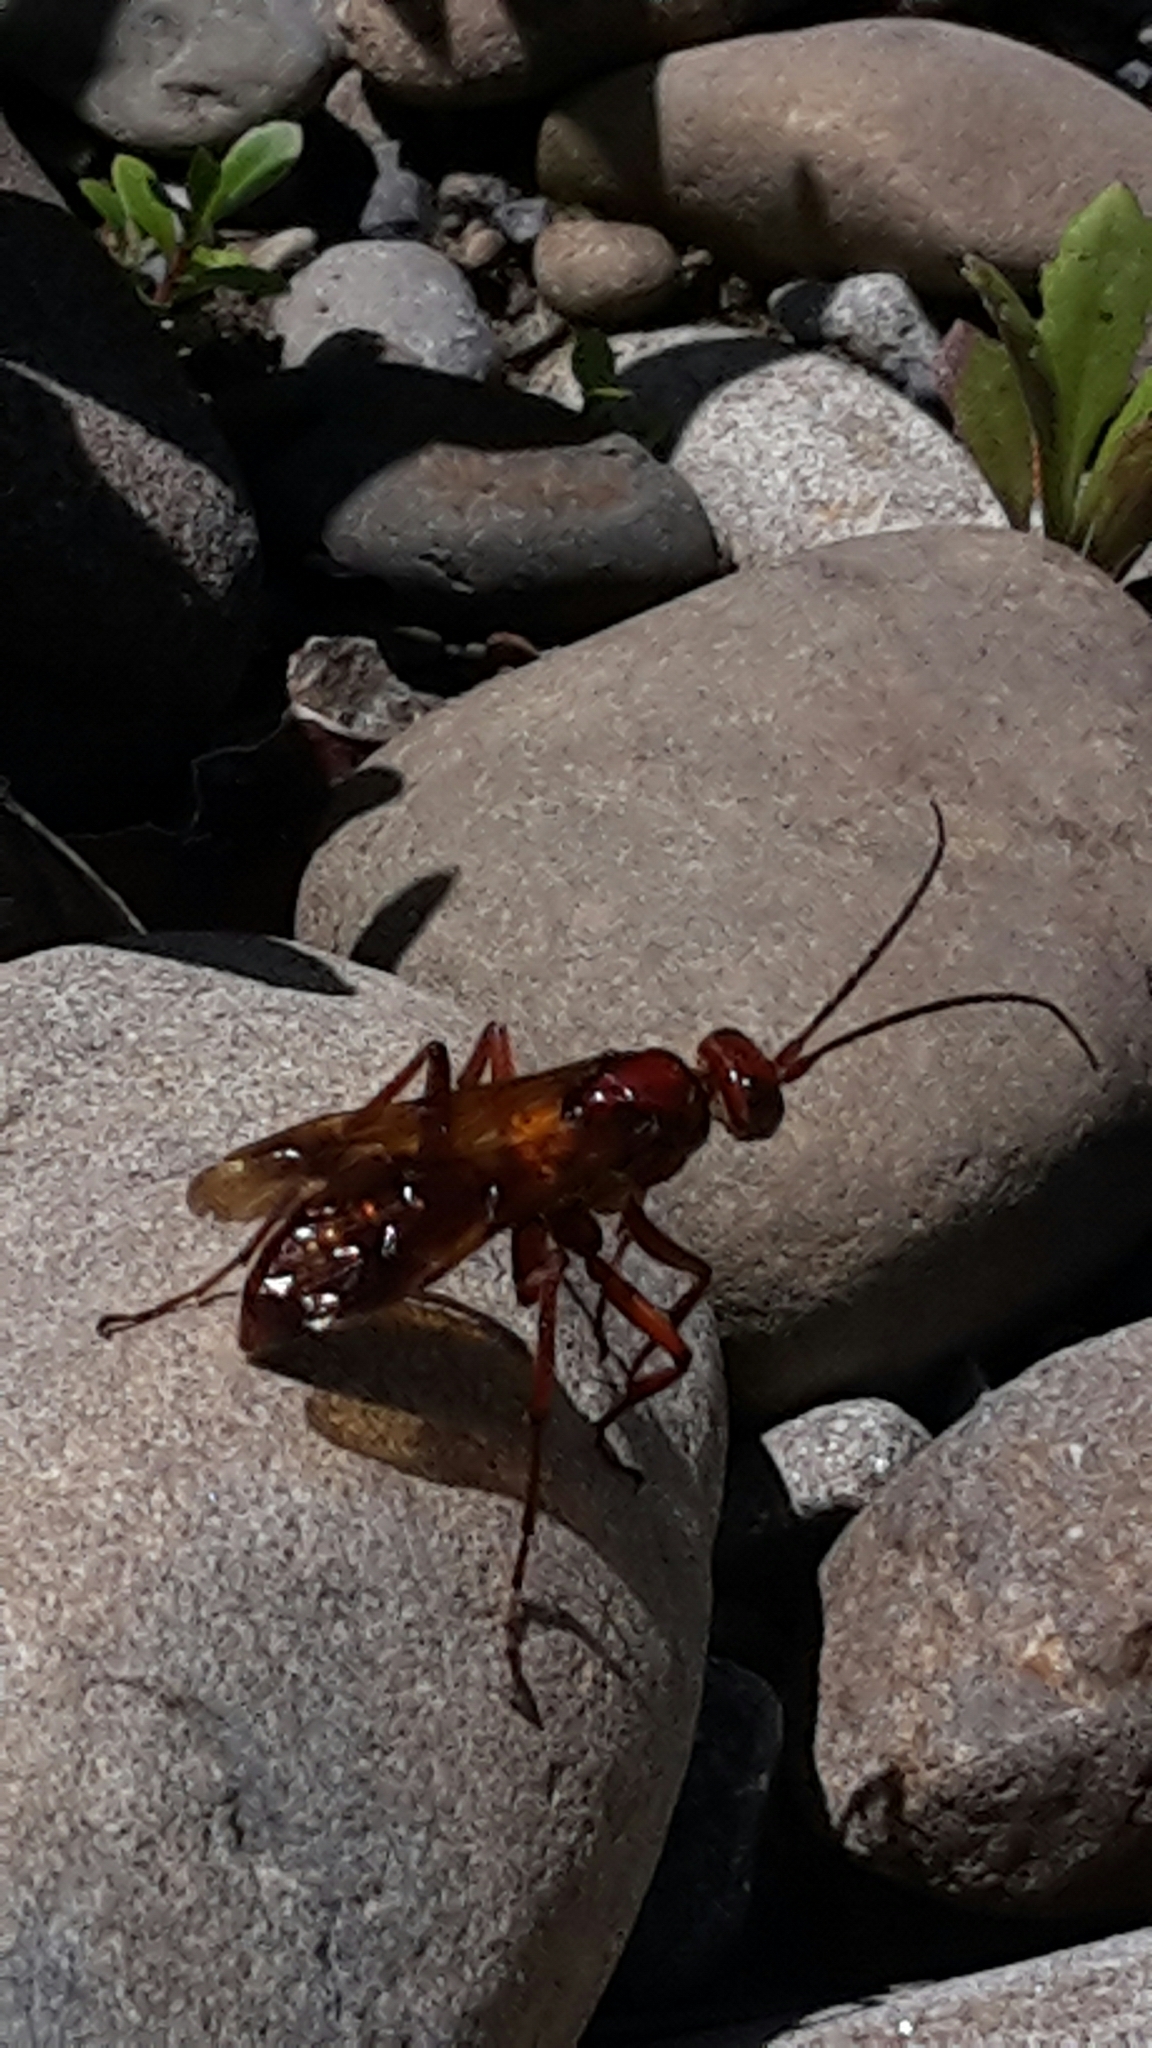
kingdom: Animalia
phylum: Arthropoda
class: Insecta
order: Hymenoptera
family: Pompilidae
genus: Sphictostethus
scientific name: Sphictostethus nitidus
